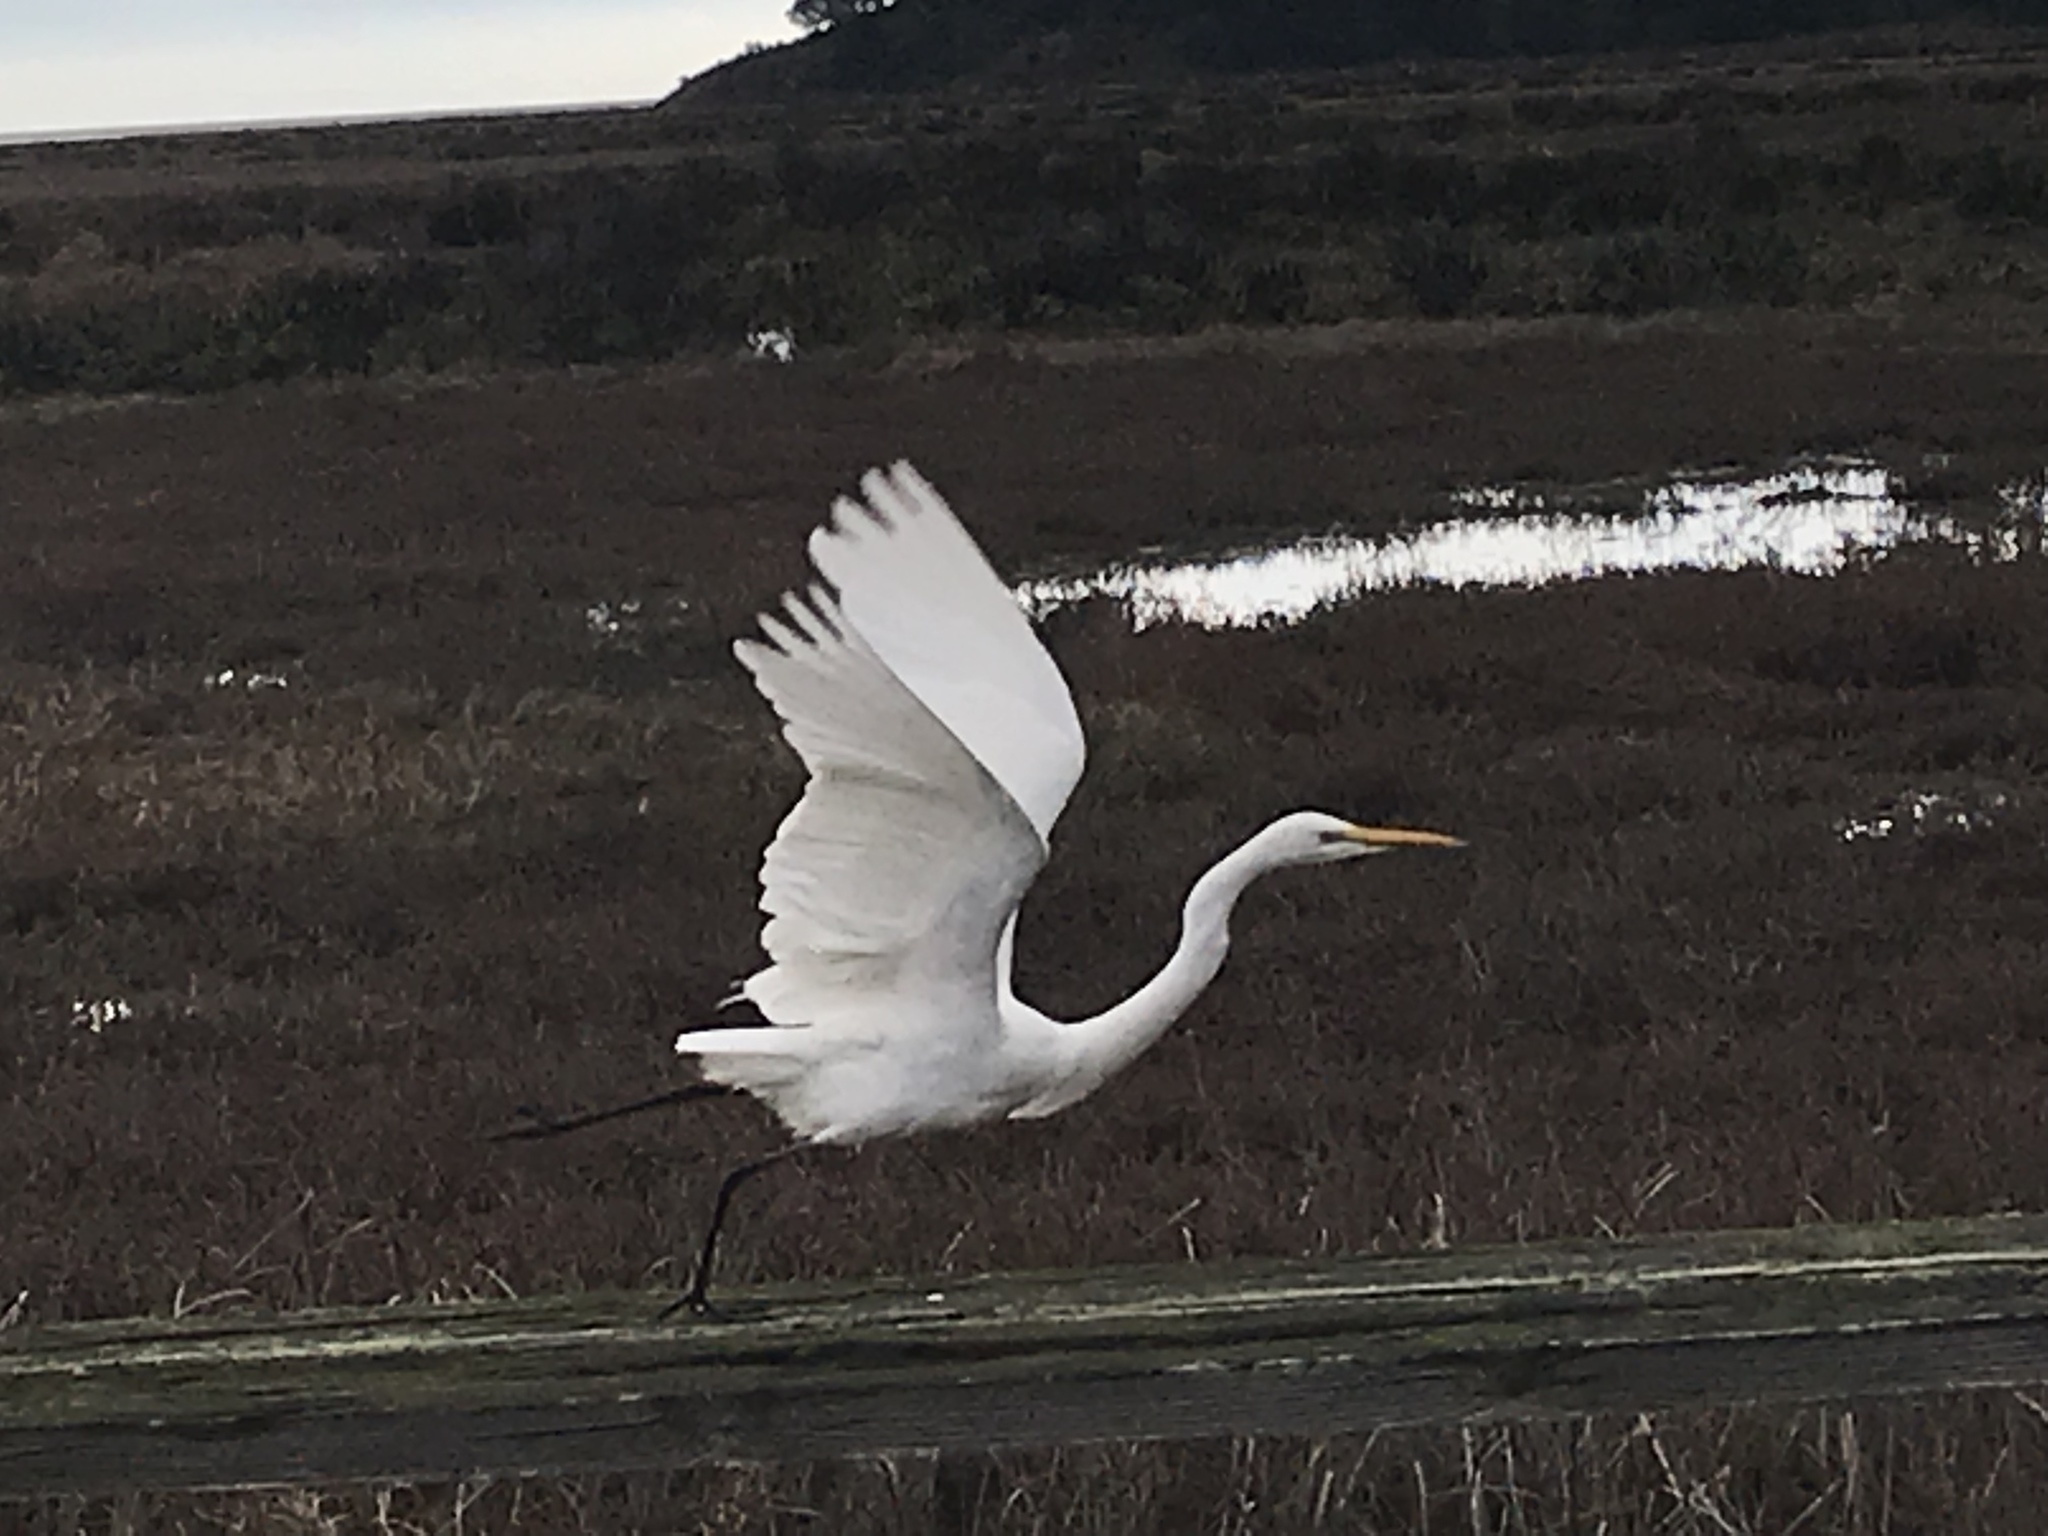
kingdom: Animalia
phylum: Chordata
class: Aves
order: Pelecaniformes
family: Ardeidae
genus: Ardea
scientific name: Ardea alba
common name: Great egret
